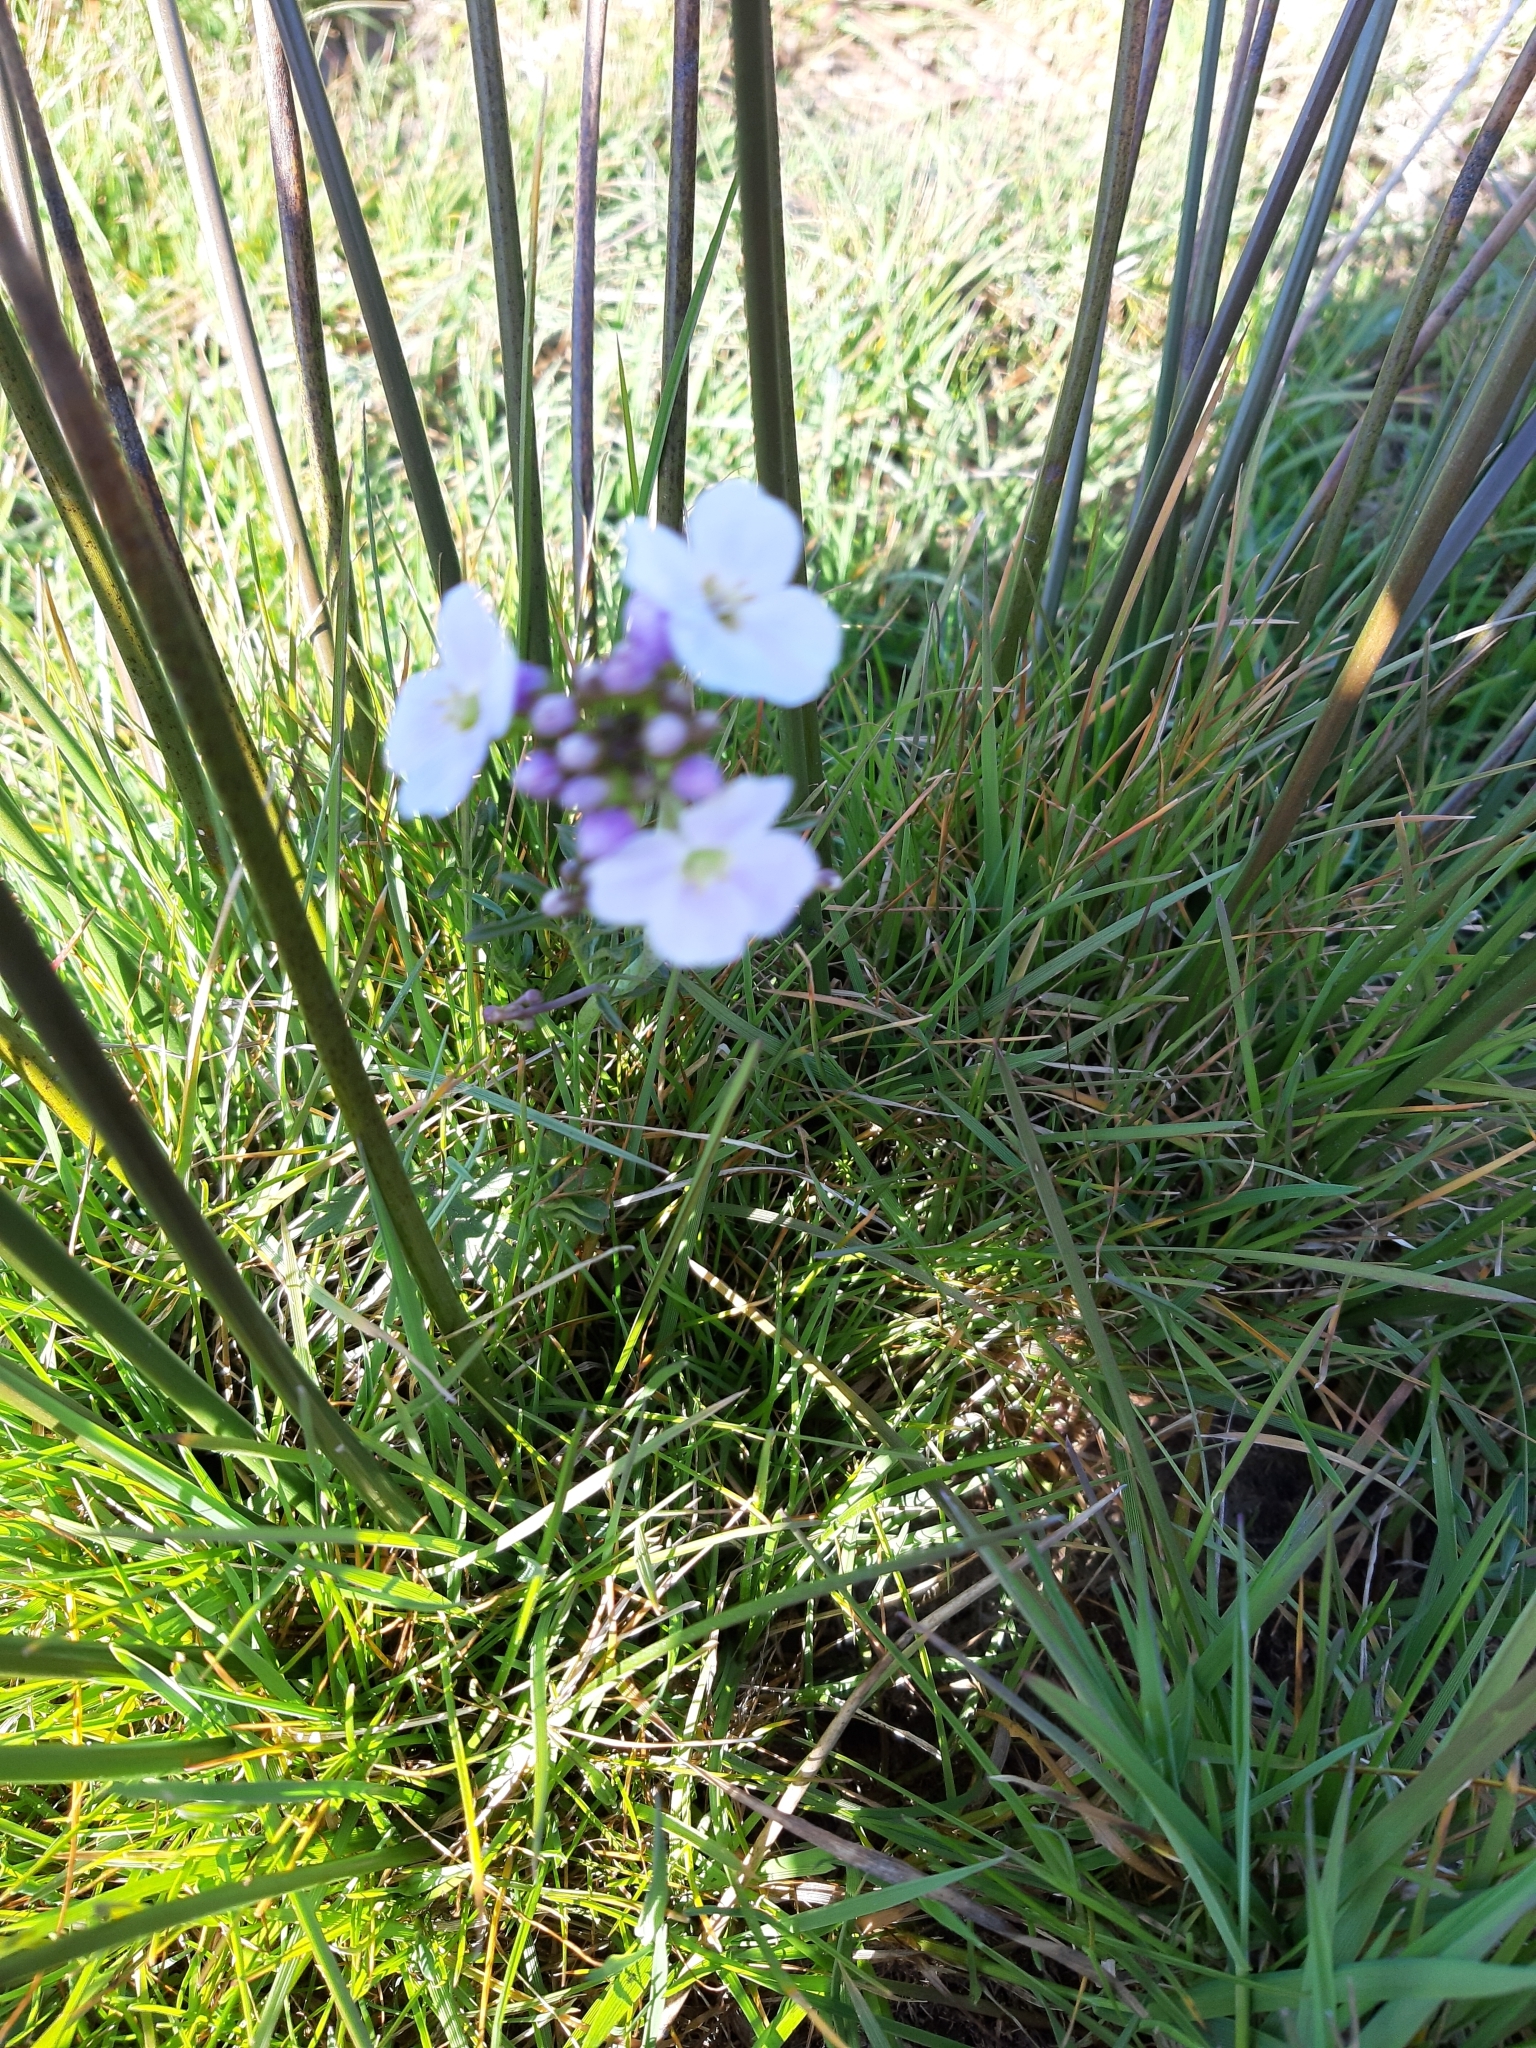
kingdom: Plantae
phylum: Tracheophyta
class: Magnoliopsida
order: Brassicales
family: Brassicaceae
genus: Cardamine
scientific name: Cardamine pratensis
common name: Cuckoo flower
